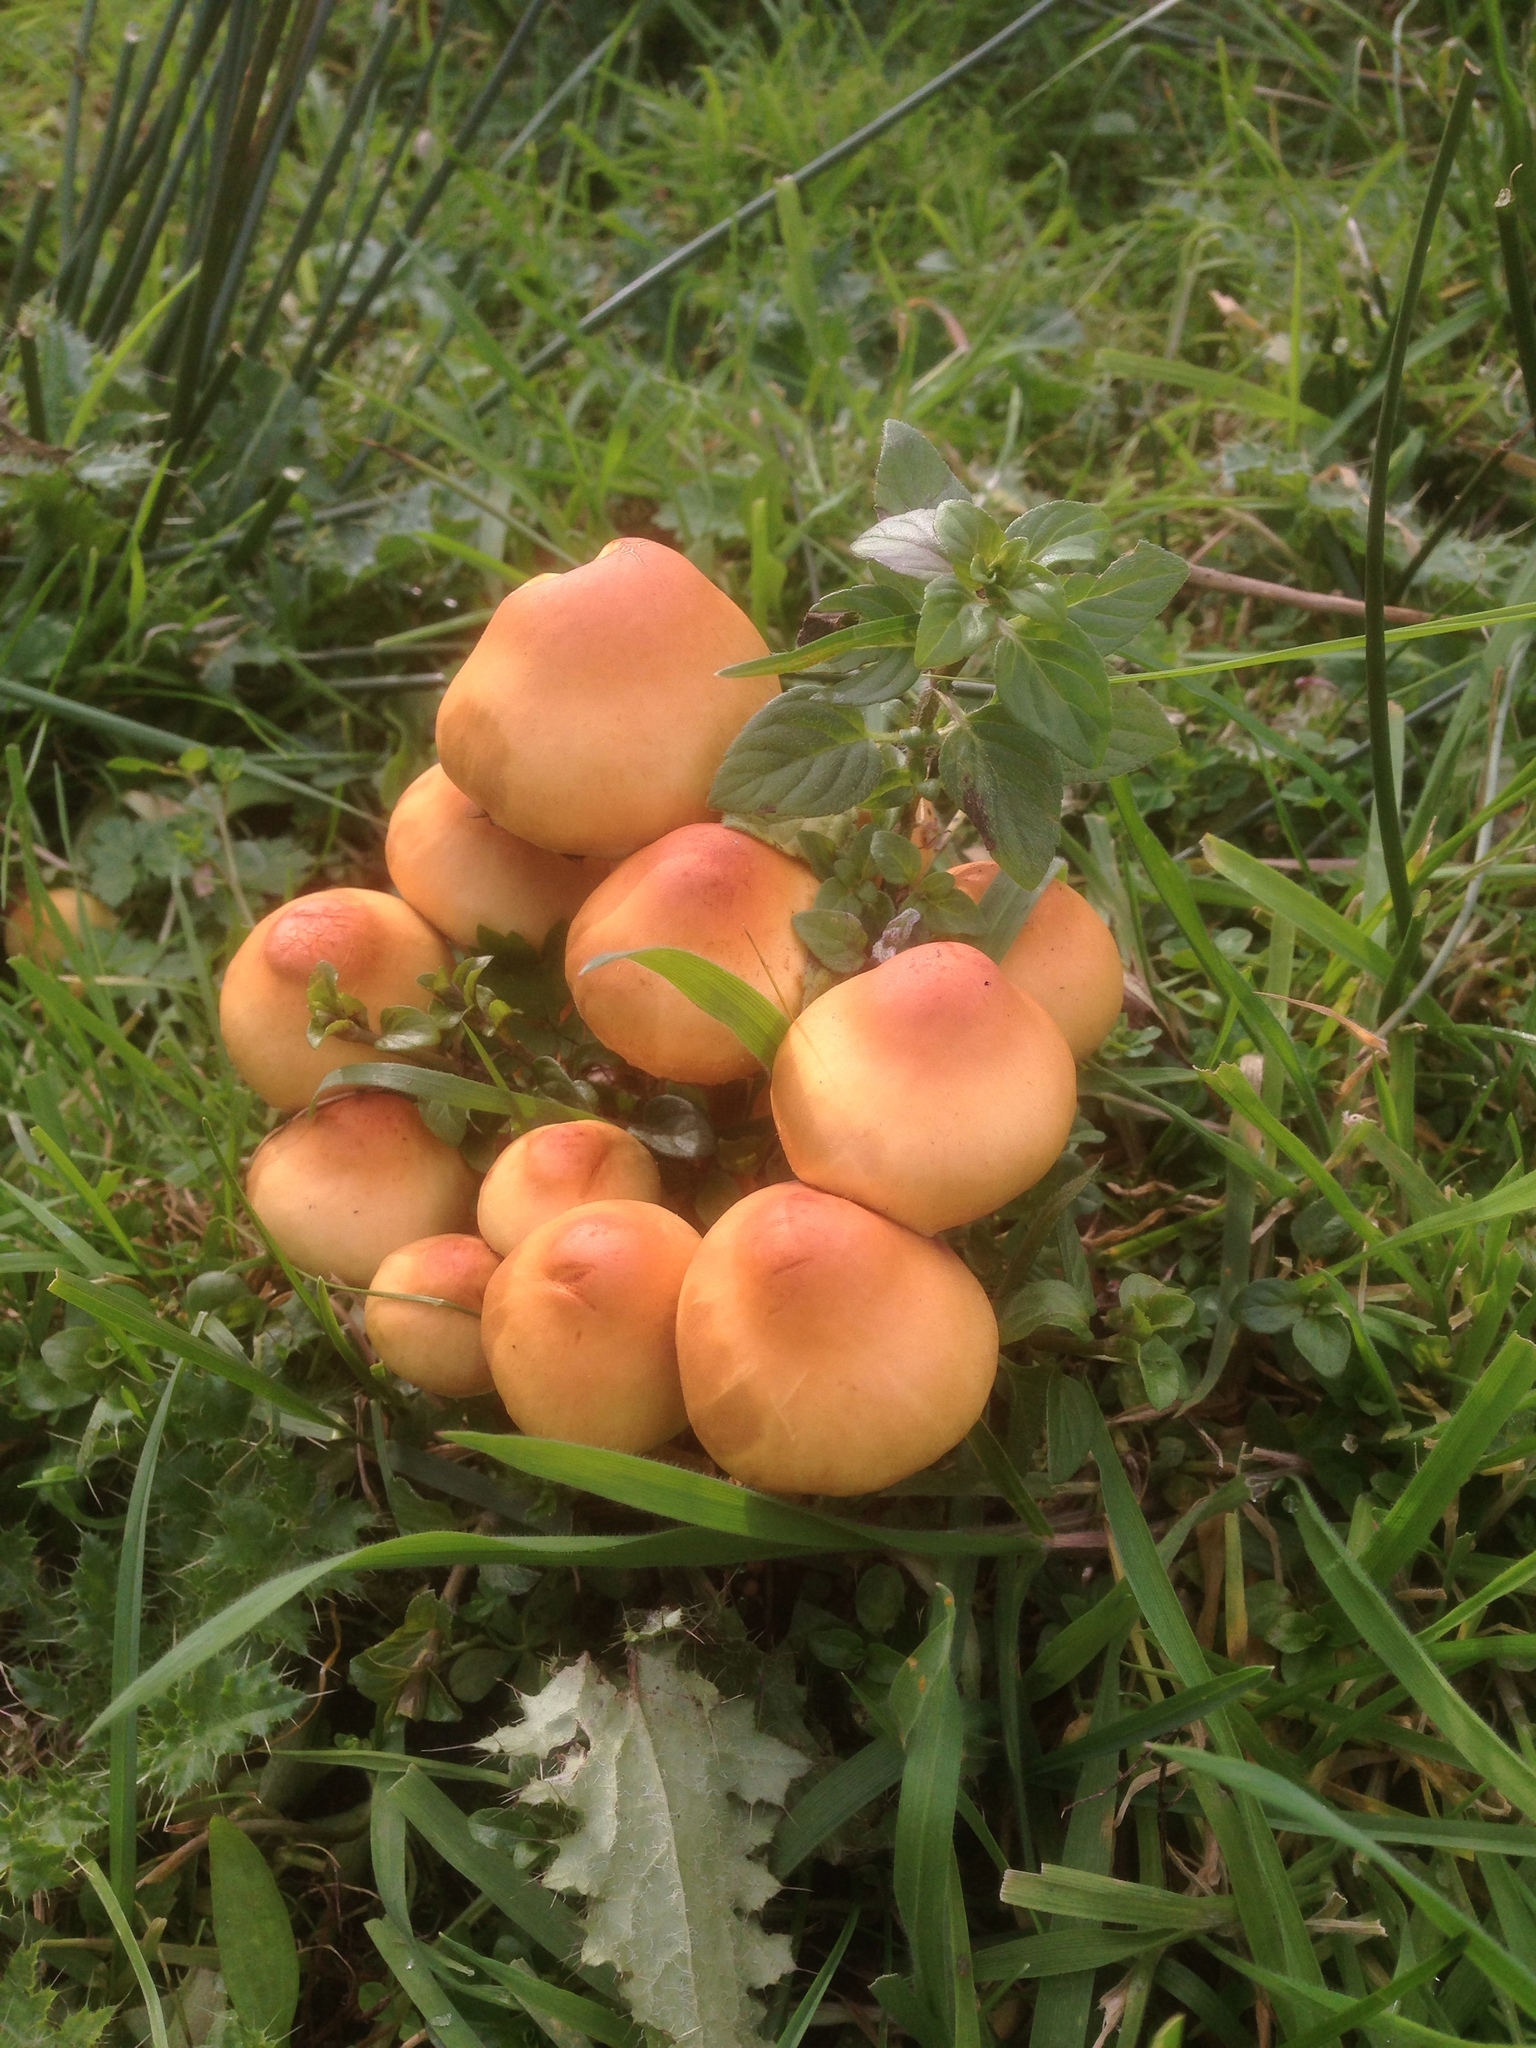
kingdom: Fungi
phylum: Basidiomycota
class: Agaricomycetes
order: Agaricales
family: Strophariaceae
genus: Hypholoma
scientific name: Hypholoma fasciculare
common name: Sulphur tuft
